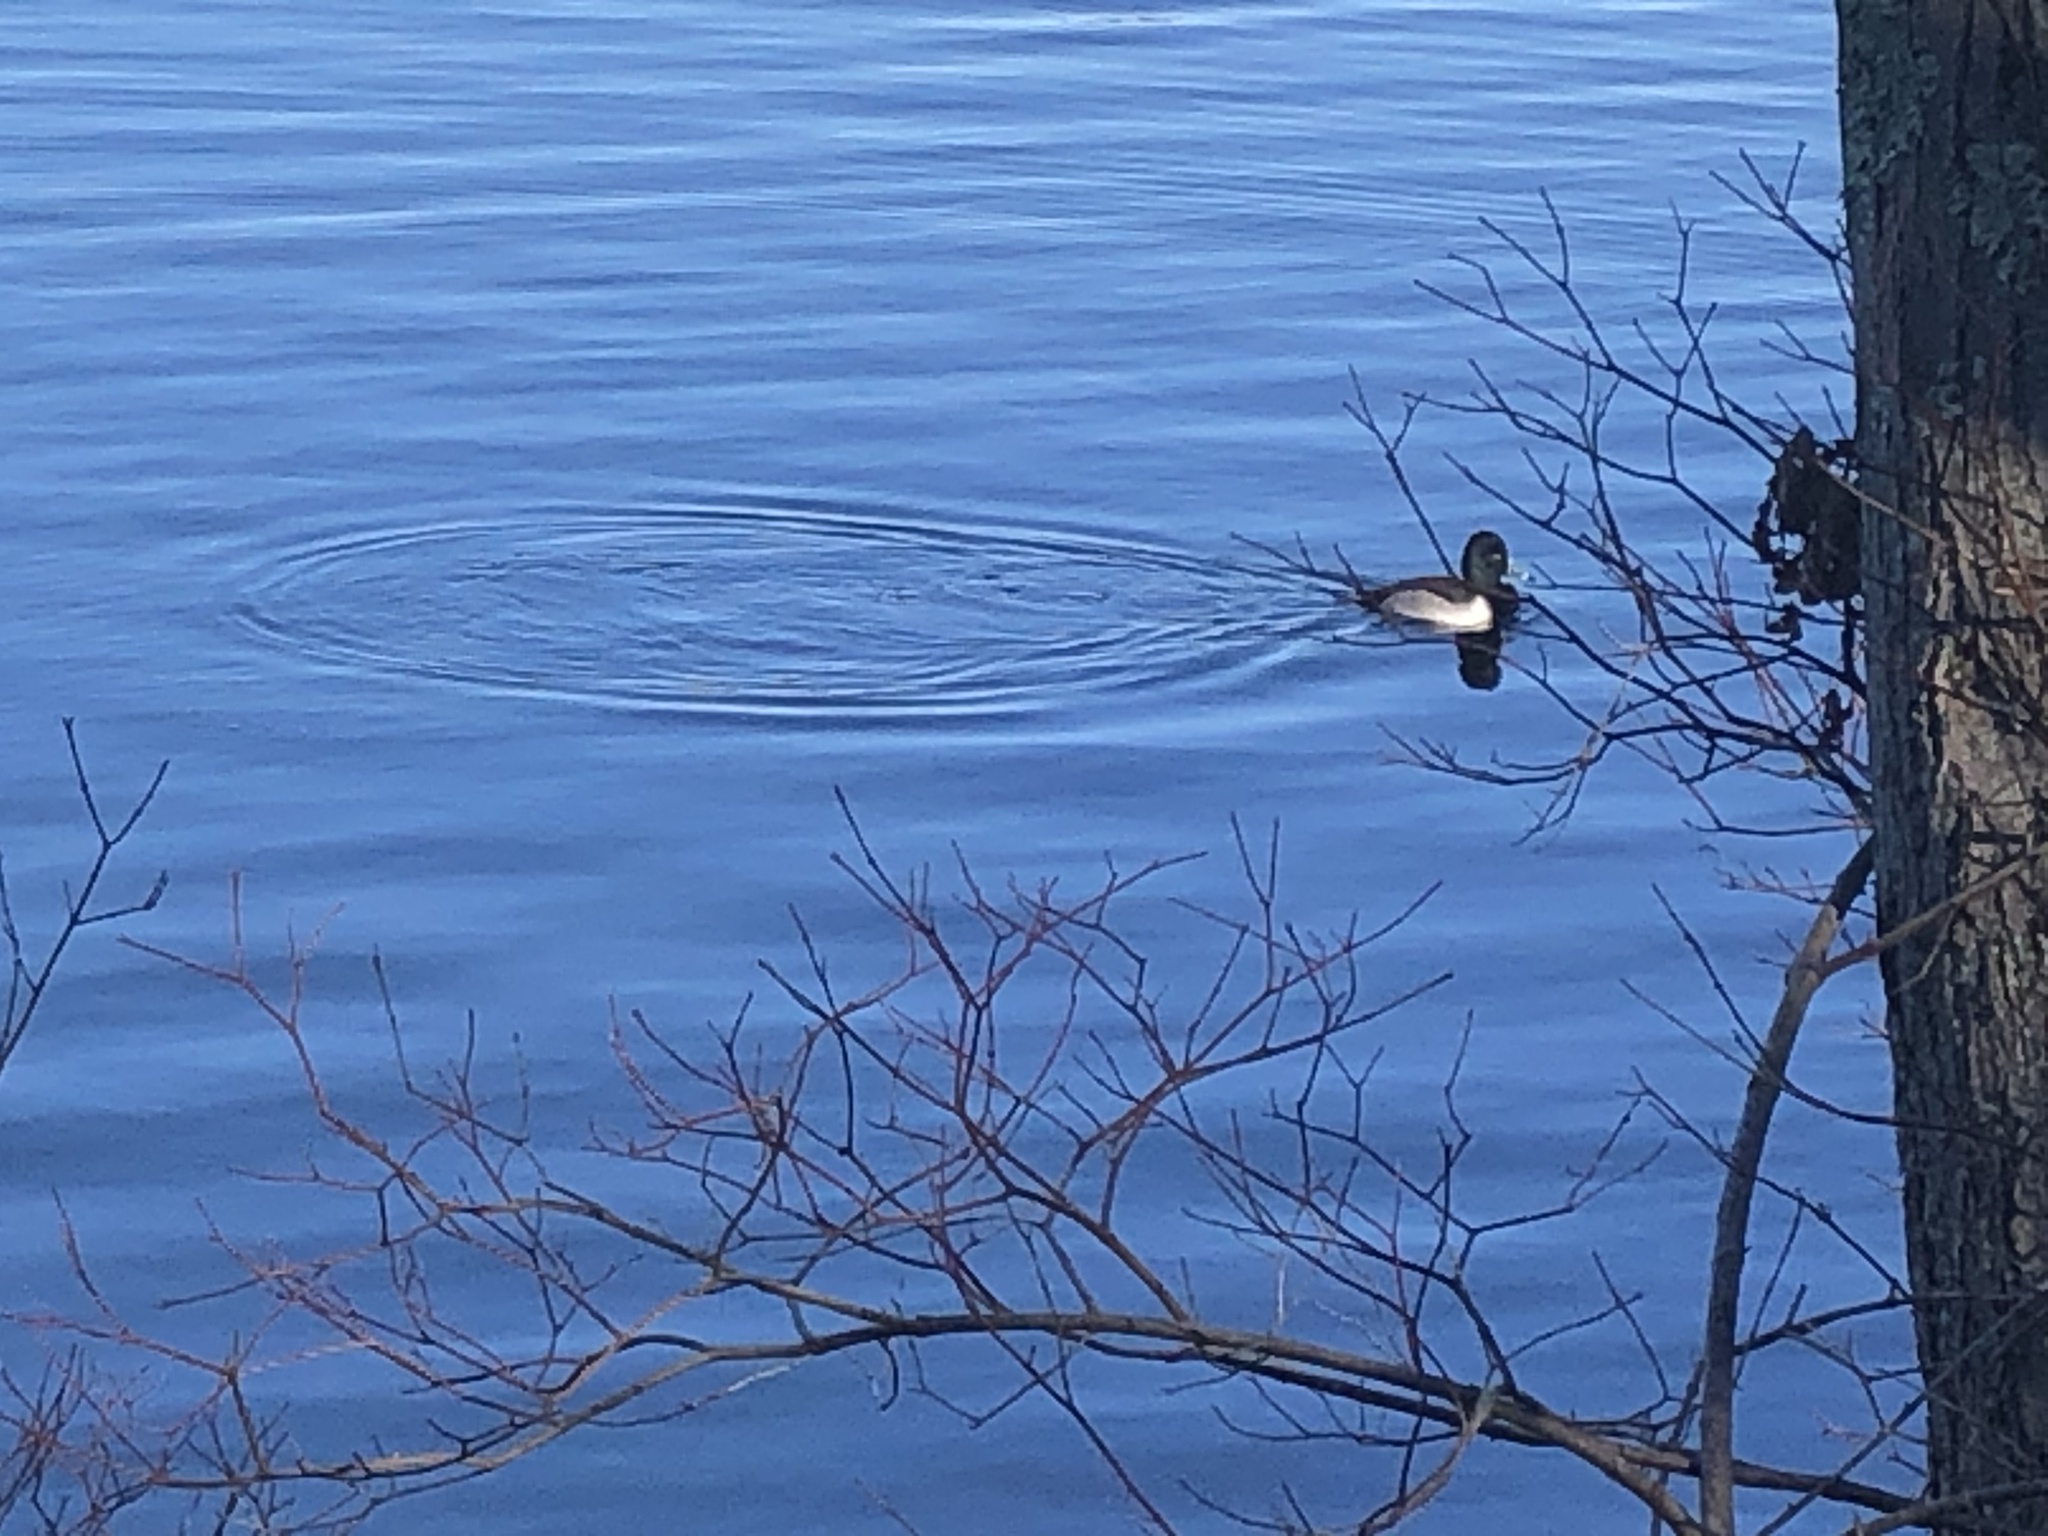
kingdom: Animalia
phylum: Chordata
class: Aves
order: Anseriformes
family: Anatidae
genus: Aythya
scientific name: Aythya collaris
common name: Ring-necked duck
